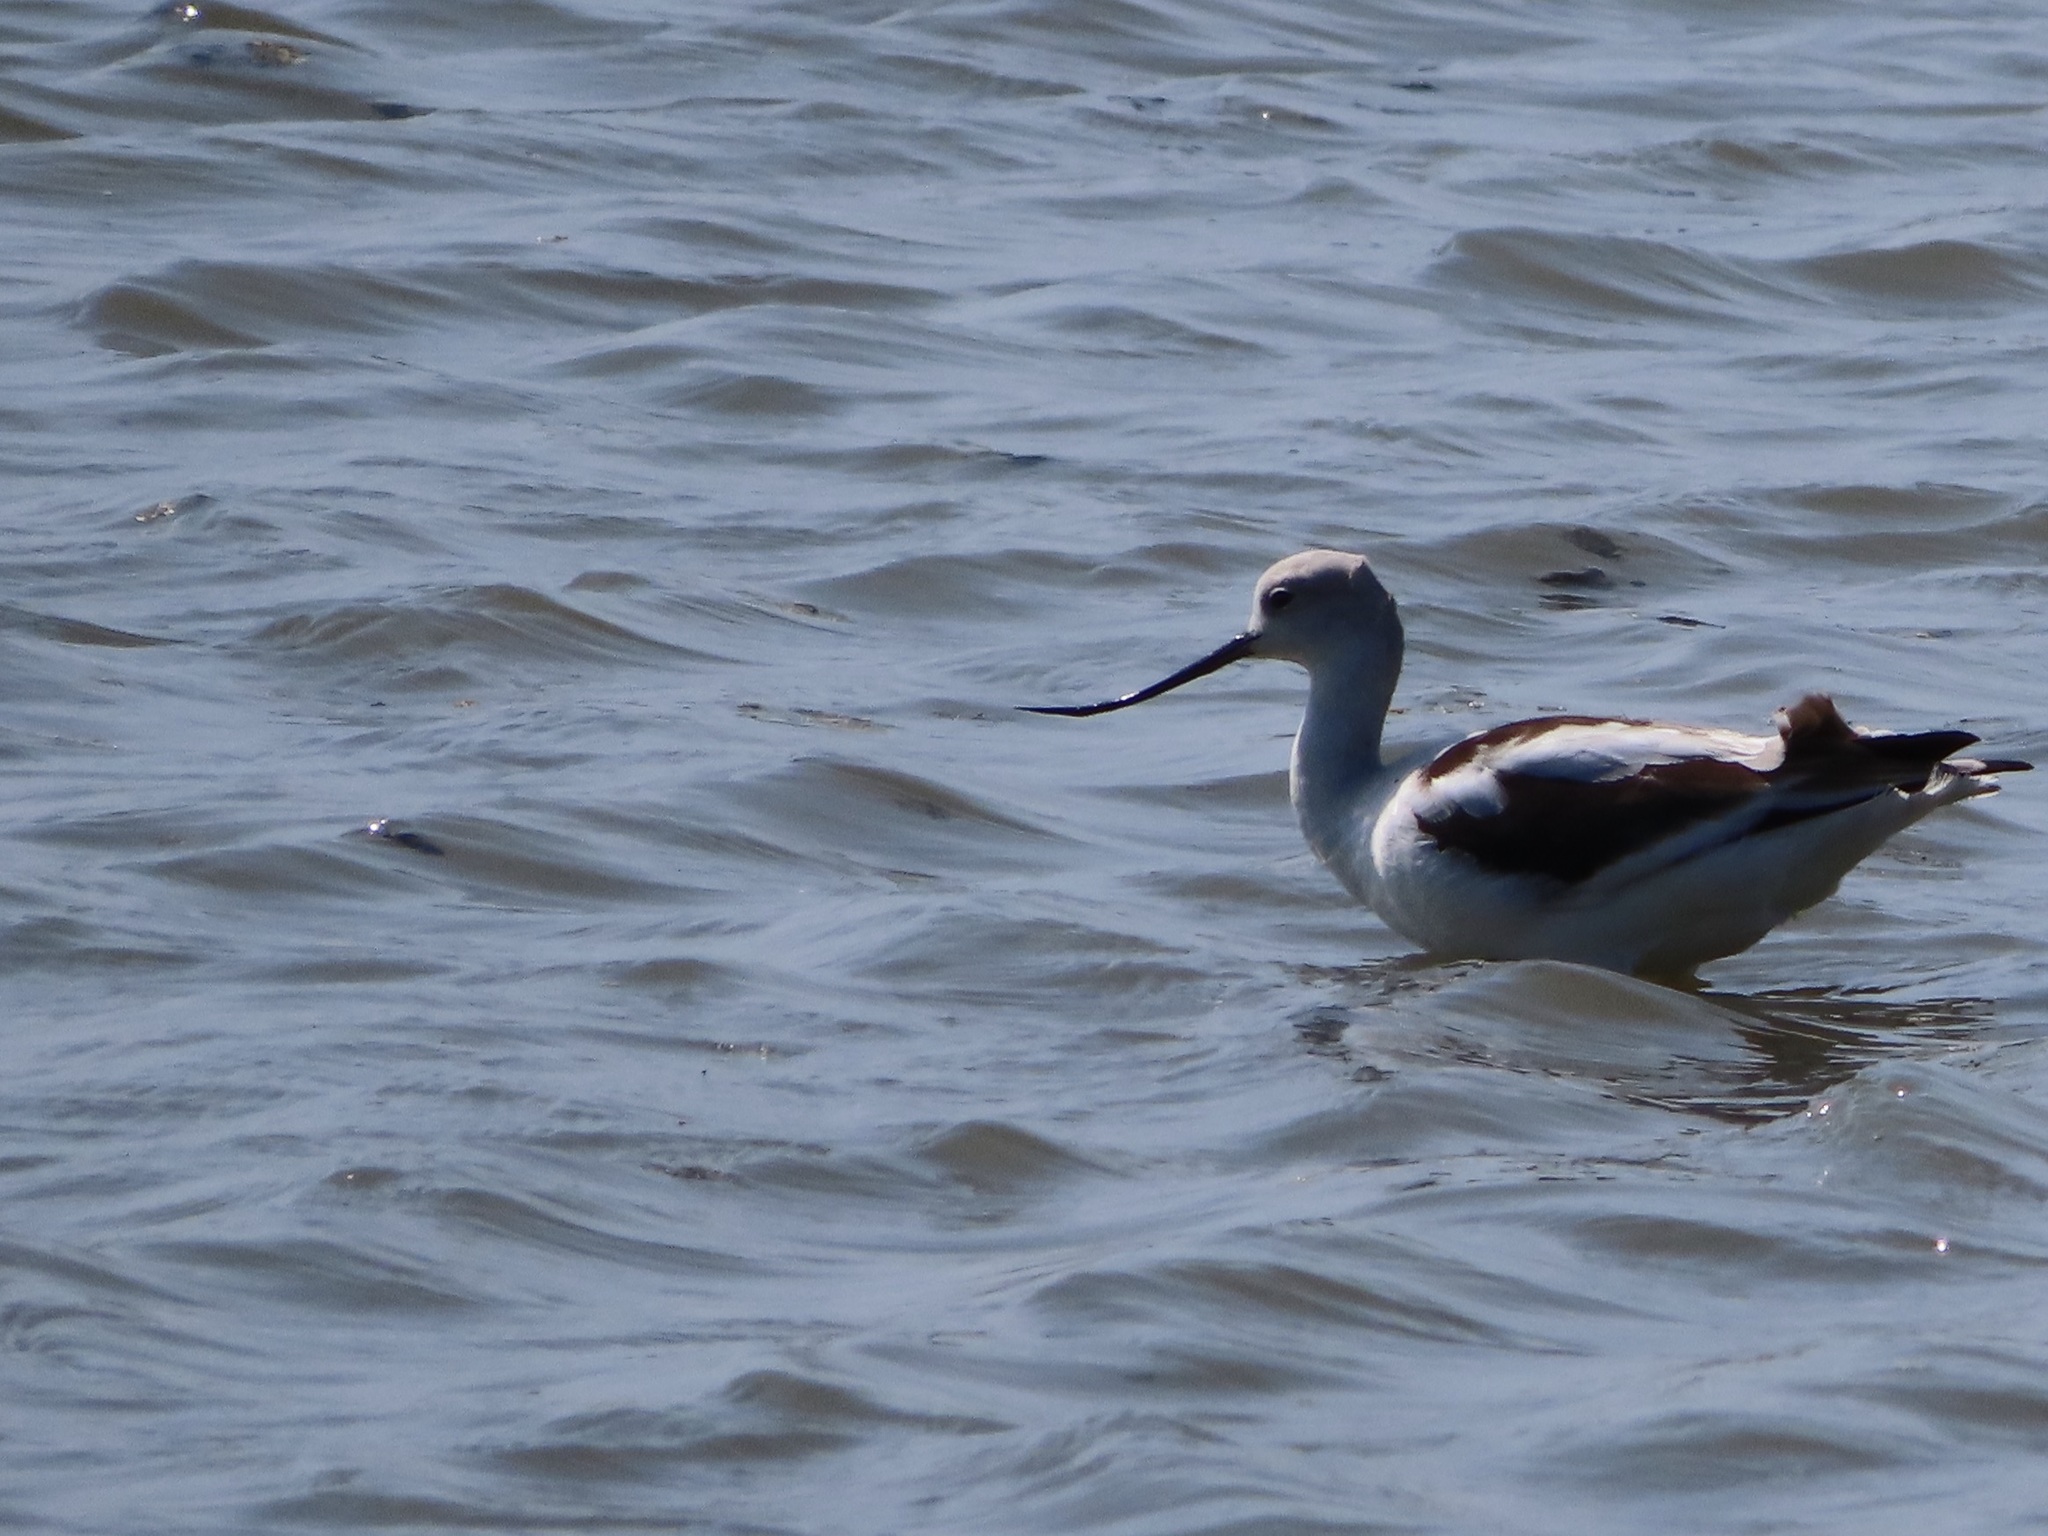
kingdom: Animalia
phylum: Chordata
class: Aves
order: Charadriiformes
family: Recurvirostridae
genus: Recurvirostra
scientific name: Recurvirostra americana
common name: American avocet
